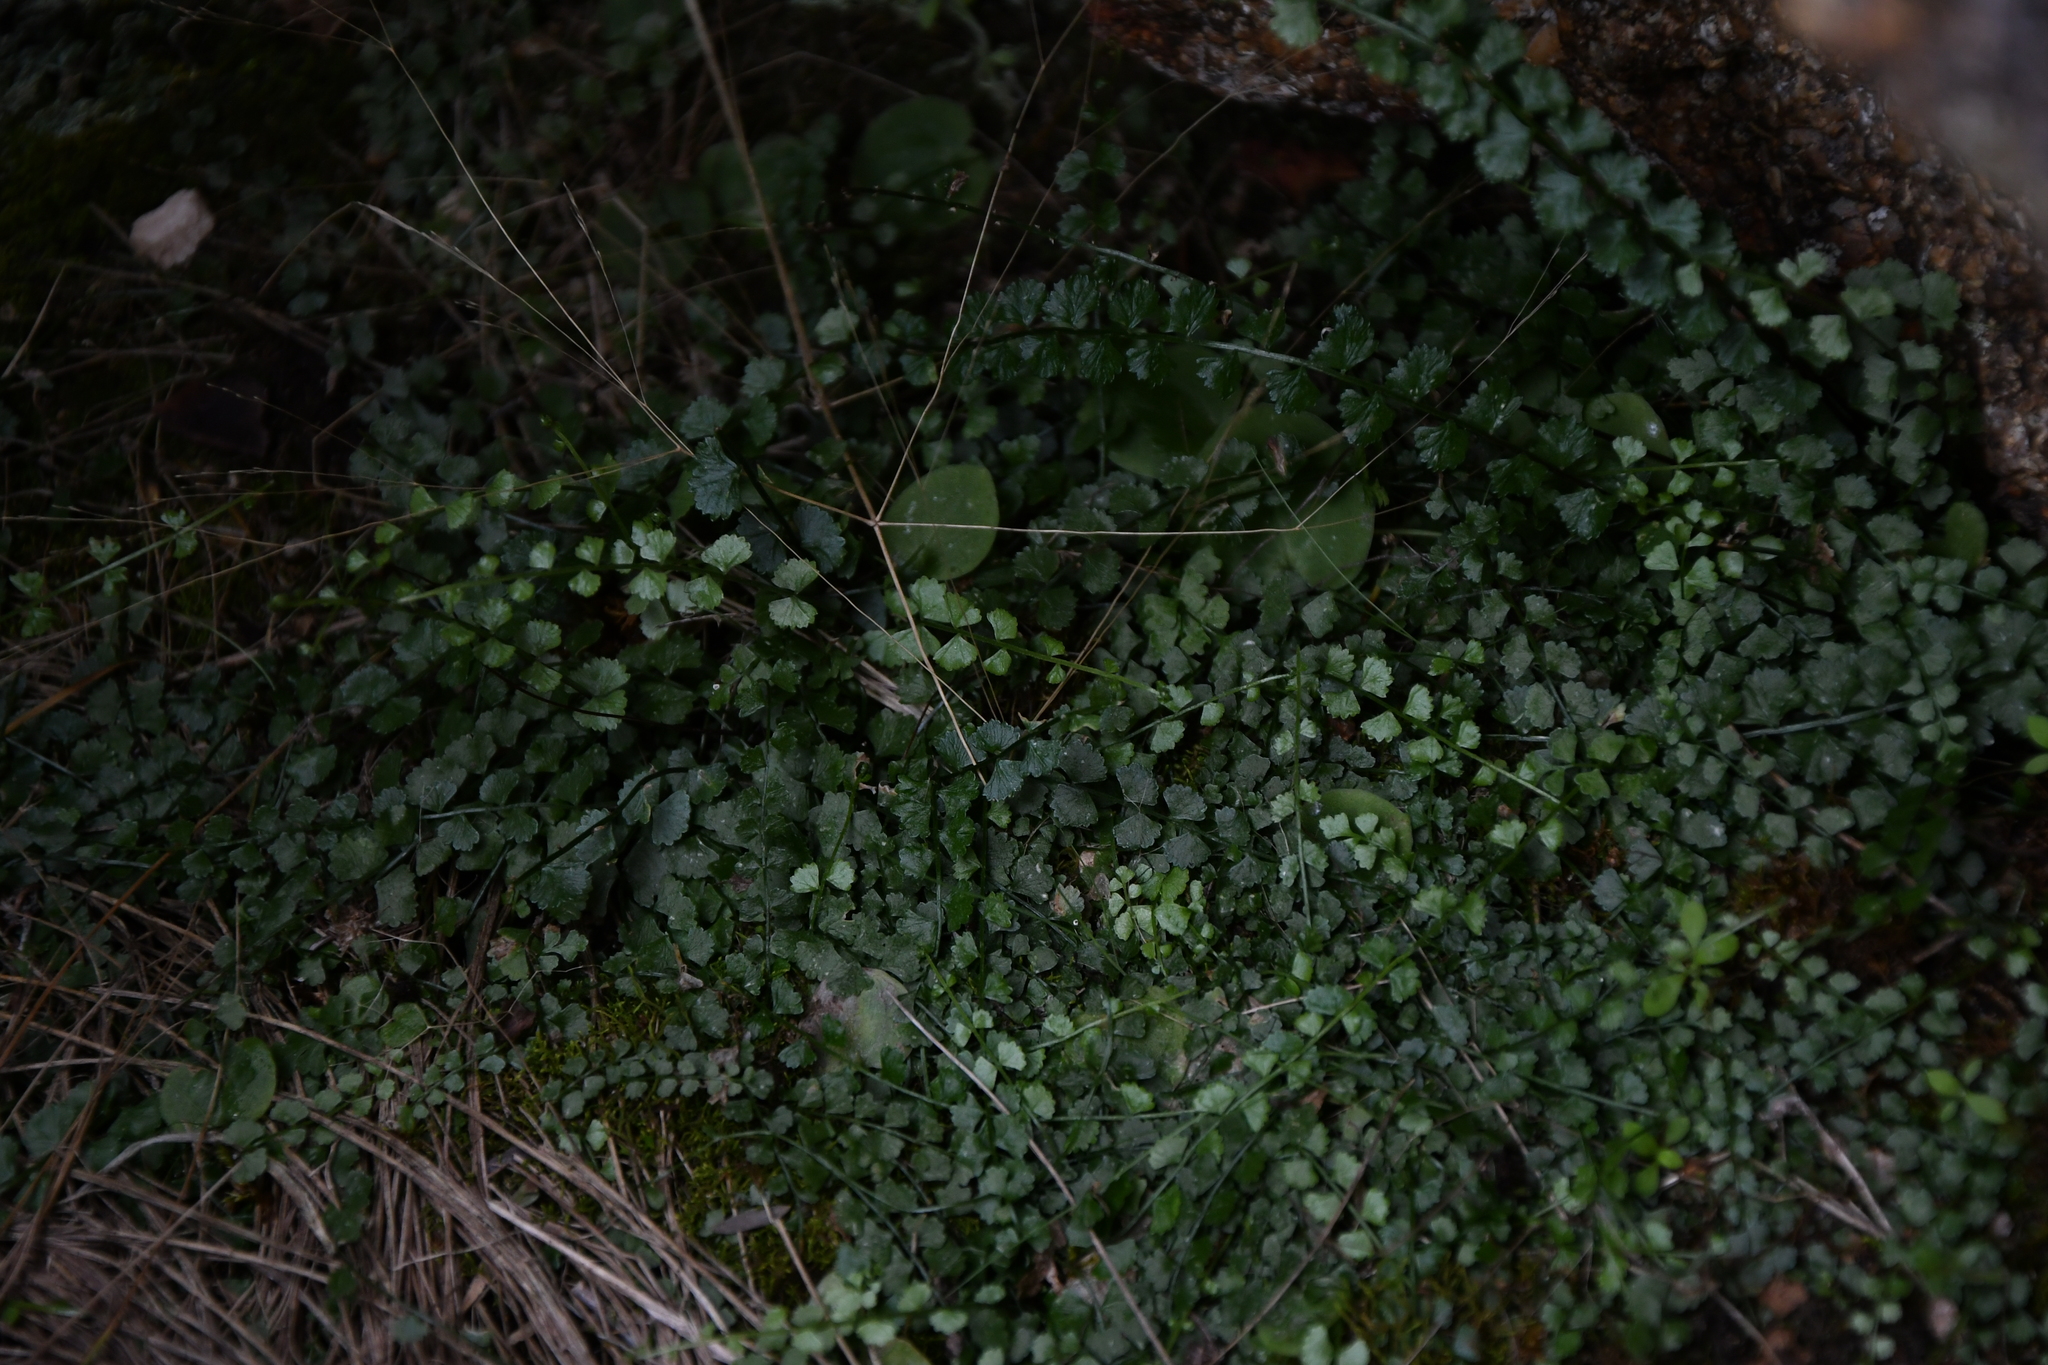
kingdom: Plantae
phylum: Tracheophyta
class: Polypodiopsida
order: Polypodiales
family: Aspleniaceae
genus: Asplenium
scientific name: Asplenium flabellifolium
